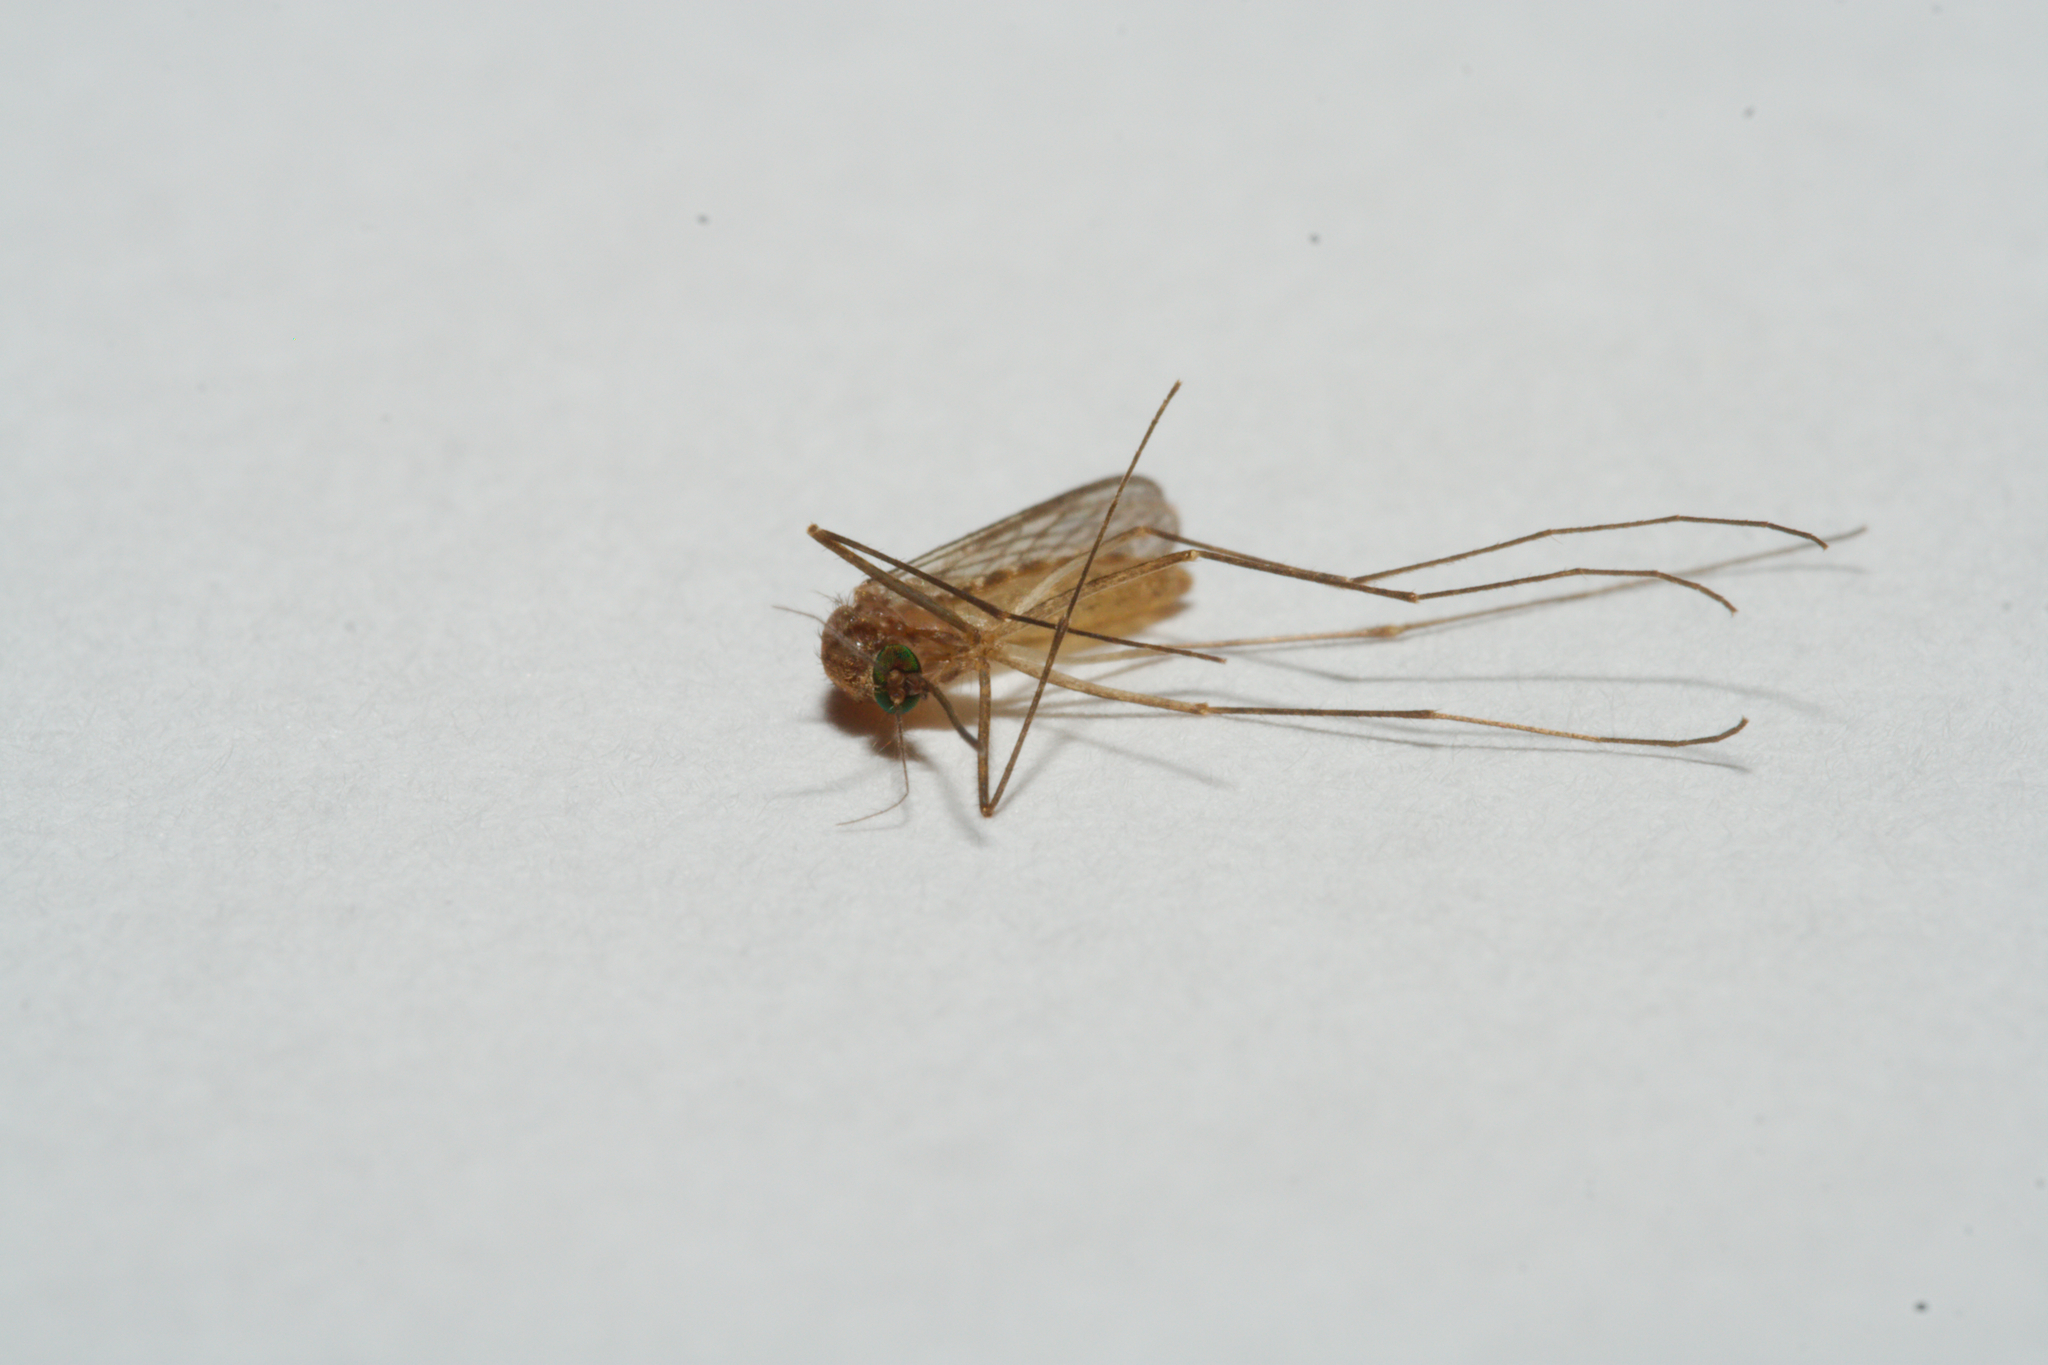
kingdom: Animalia
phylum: Arthropoda
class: Insecta
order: Diptera
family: Culicidae
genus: Culex
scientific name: Culex
